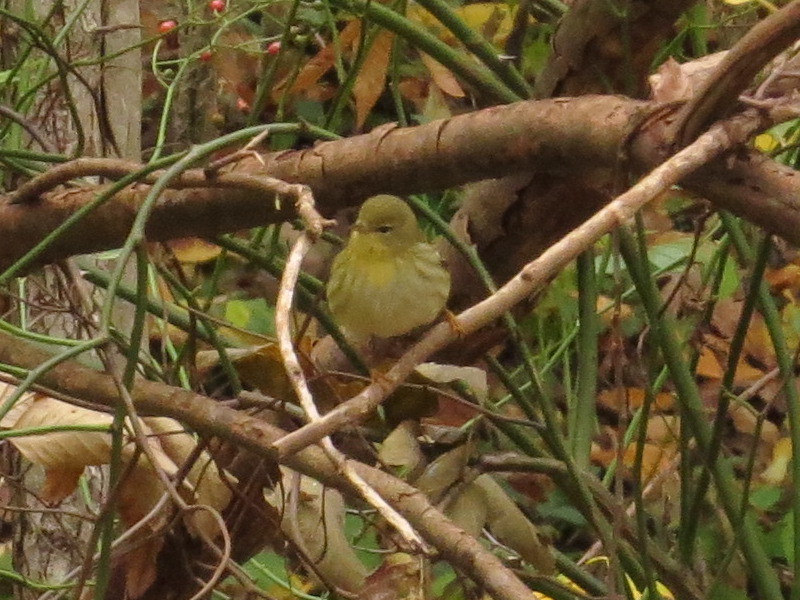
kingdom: Animalia
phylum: Chordata
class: Aves
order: Passeriformes
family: Parulidae
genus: Setophaga
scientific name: Setophaga striata
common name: Blackpoll warbler
